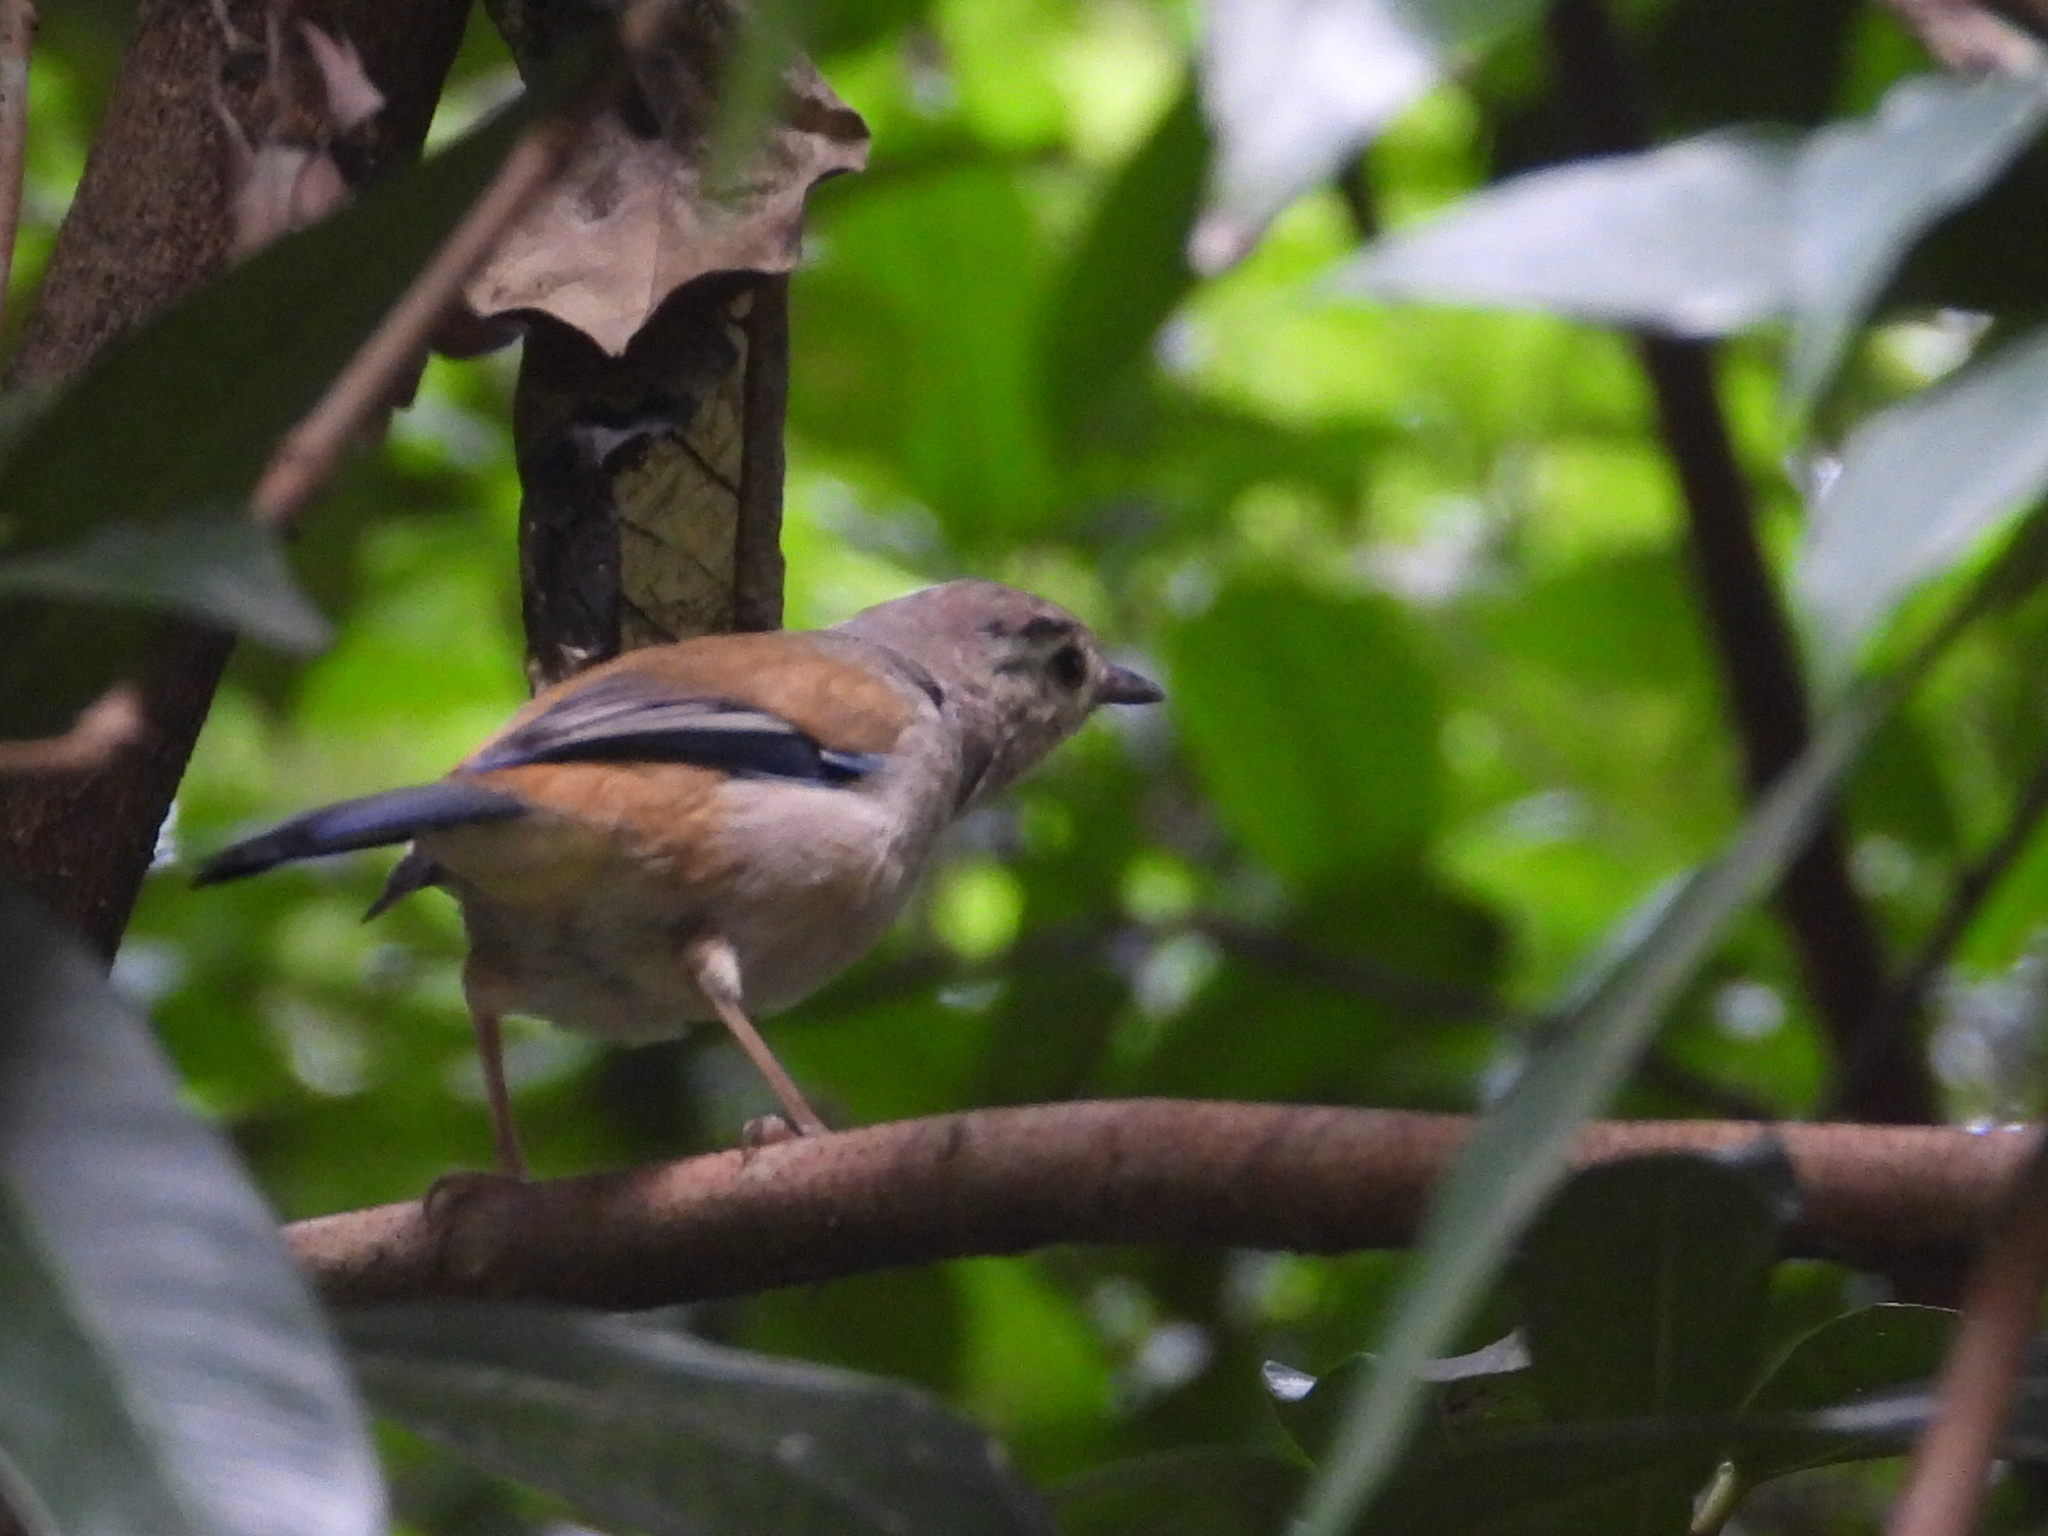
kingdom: Animalia
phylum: Chordata
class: Aves
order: Passeriformes
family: Leiothrichidae
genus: Minla
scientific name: Minla cyanouroptera
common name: Blue-winged minla
